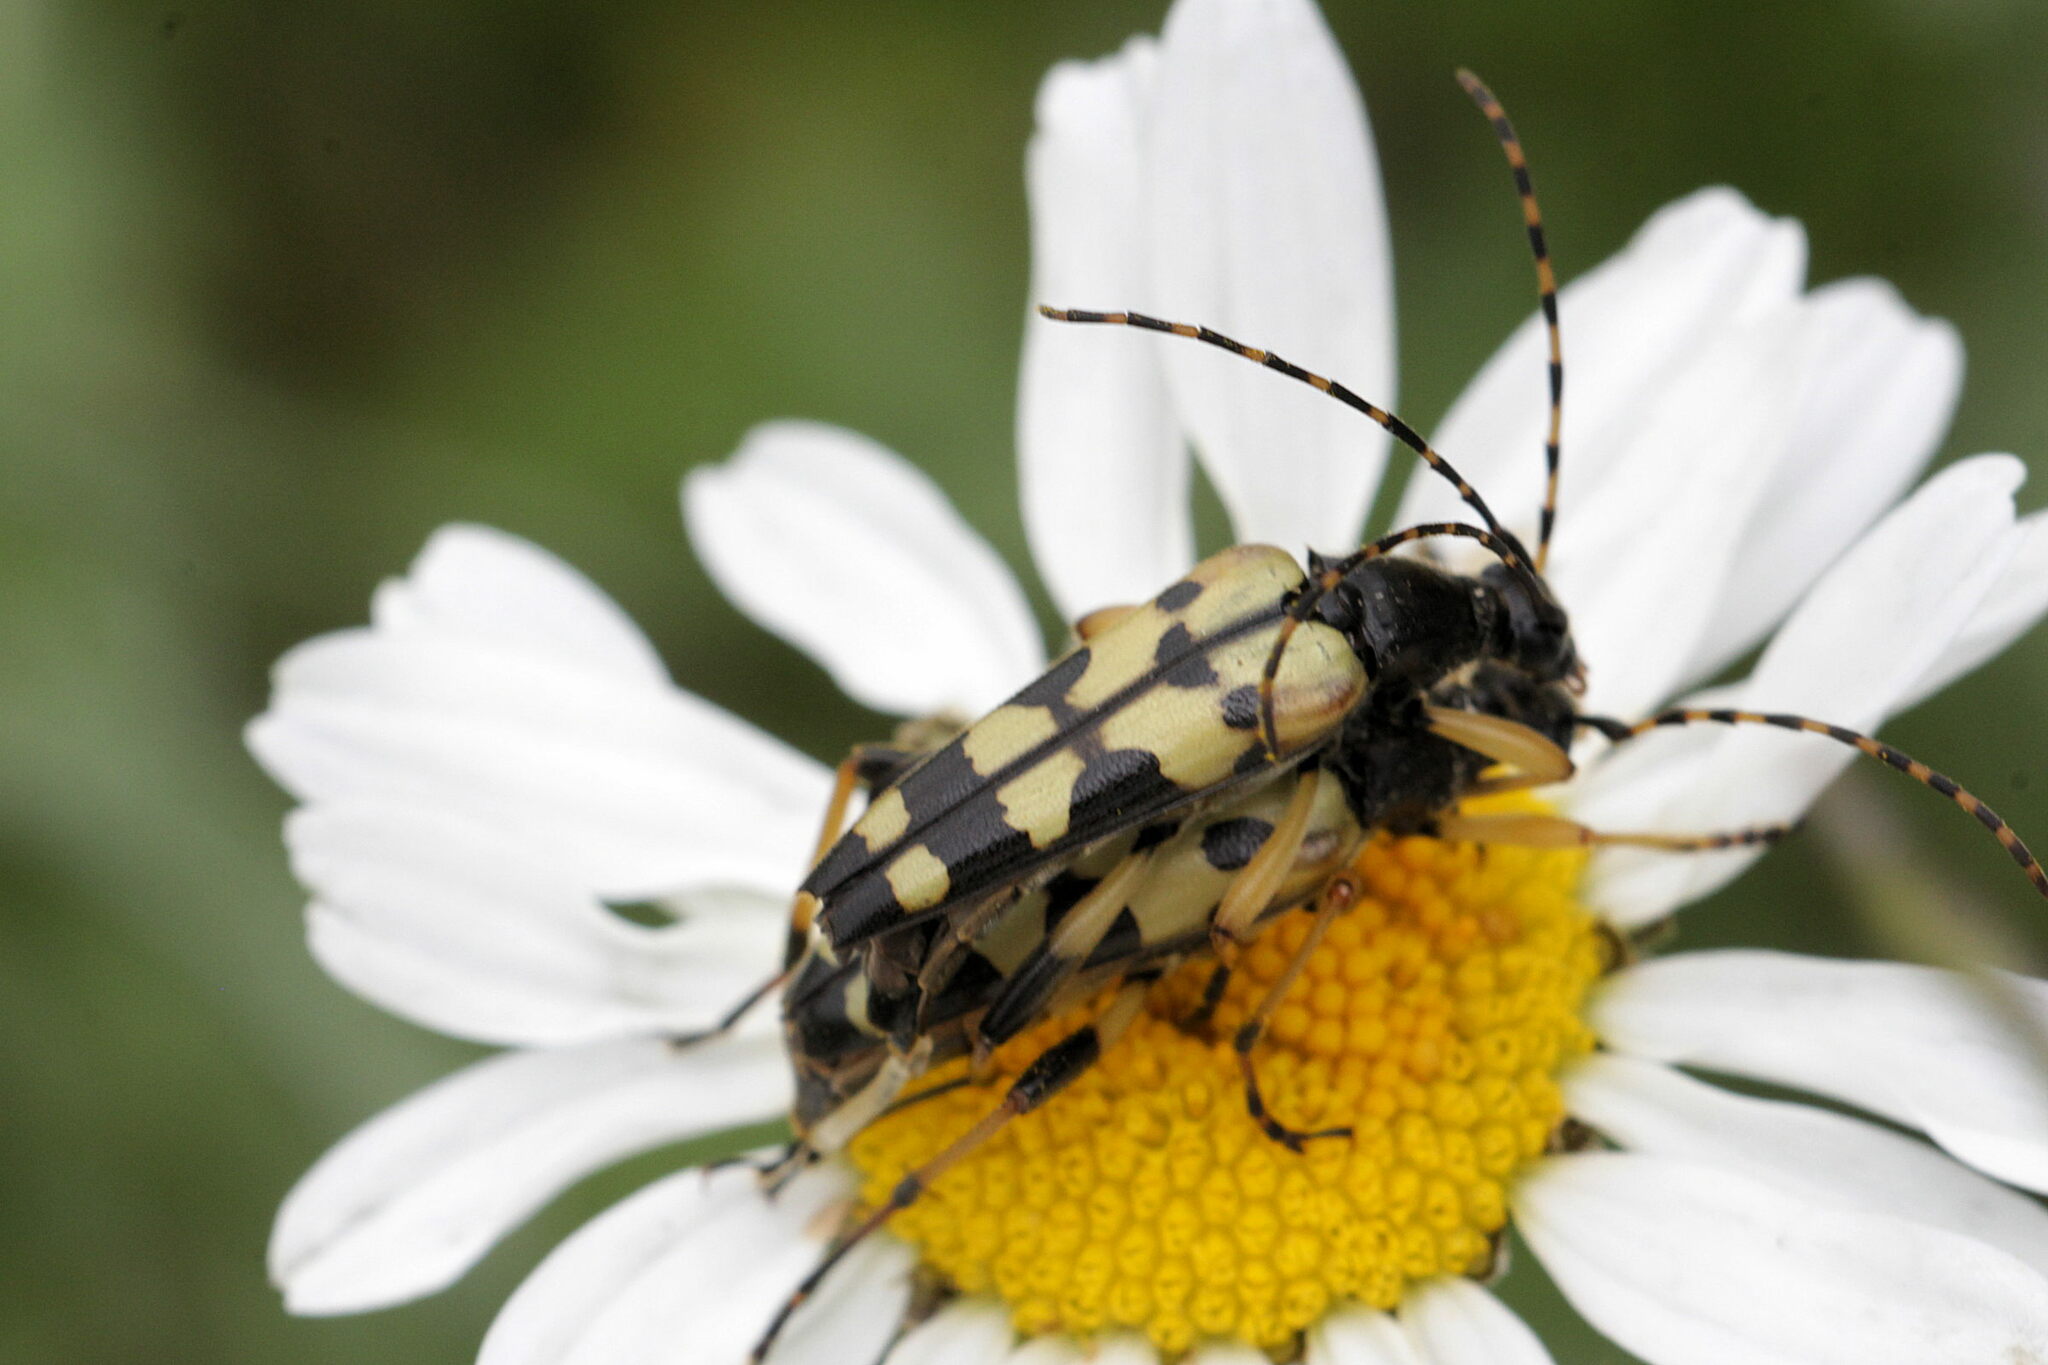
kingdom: Animalia
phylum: Arthropoda
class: Insecta
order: Coleoptera
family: Cerambycidae
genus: Rutpela
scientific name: Rutpela maculata
